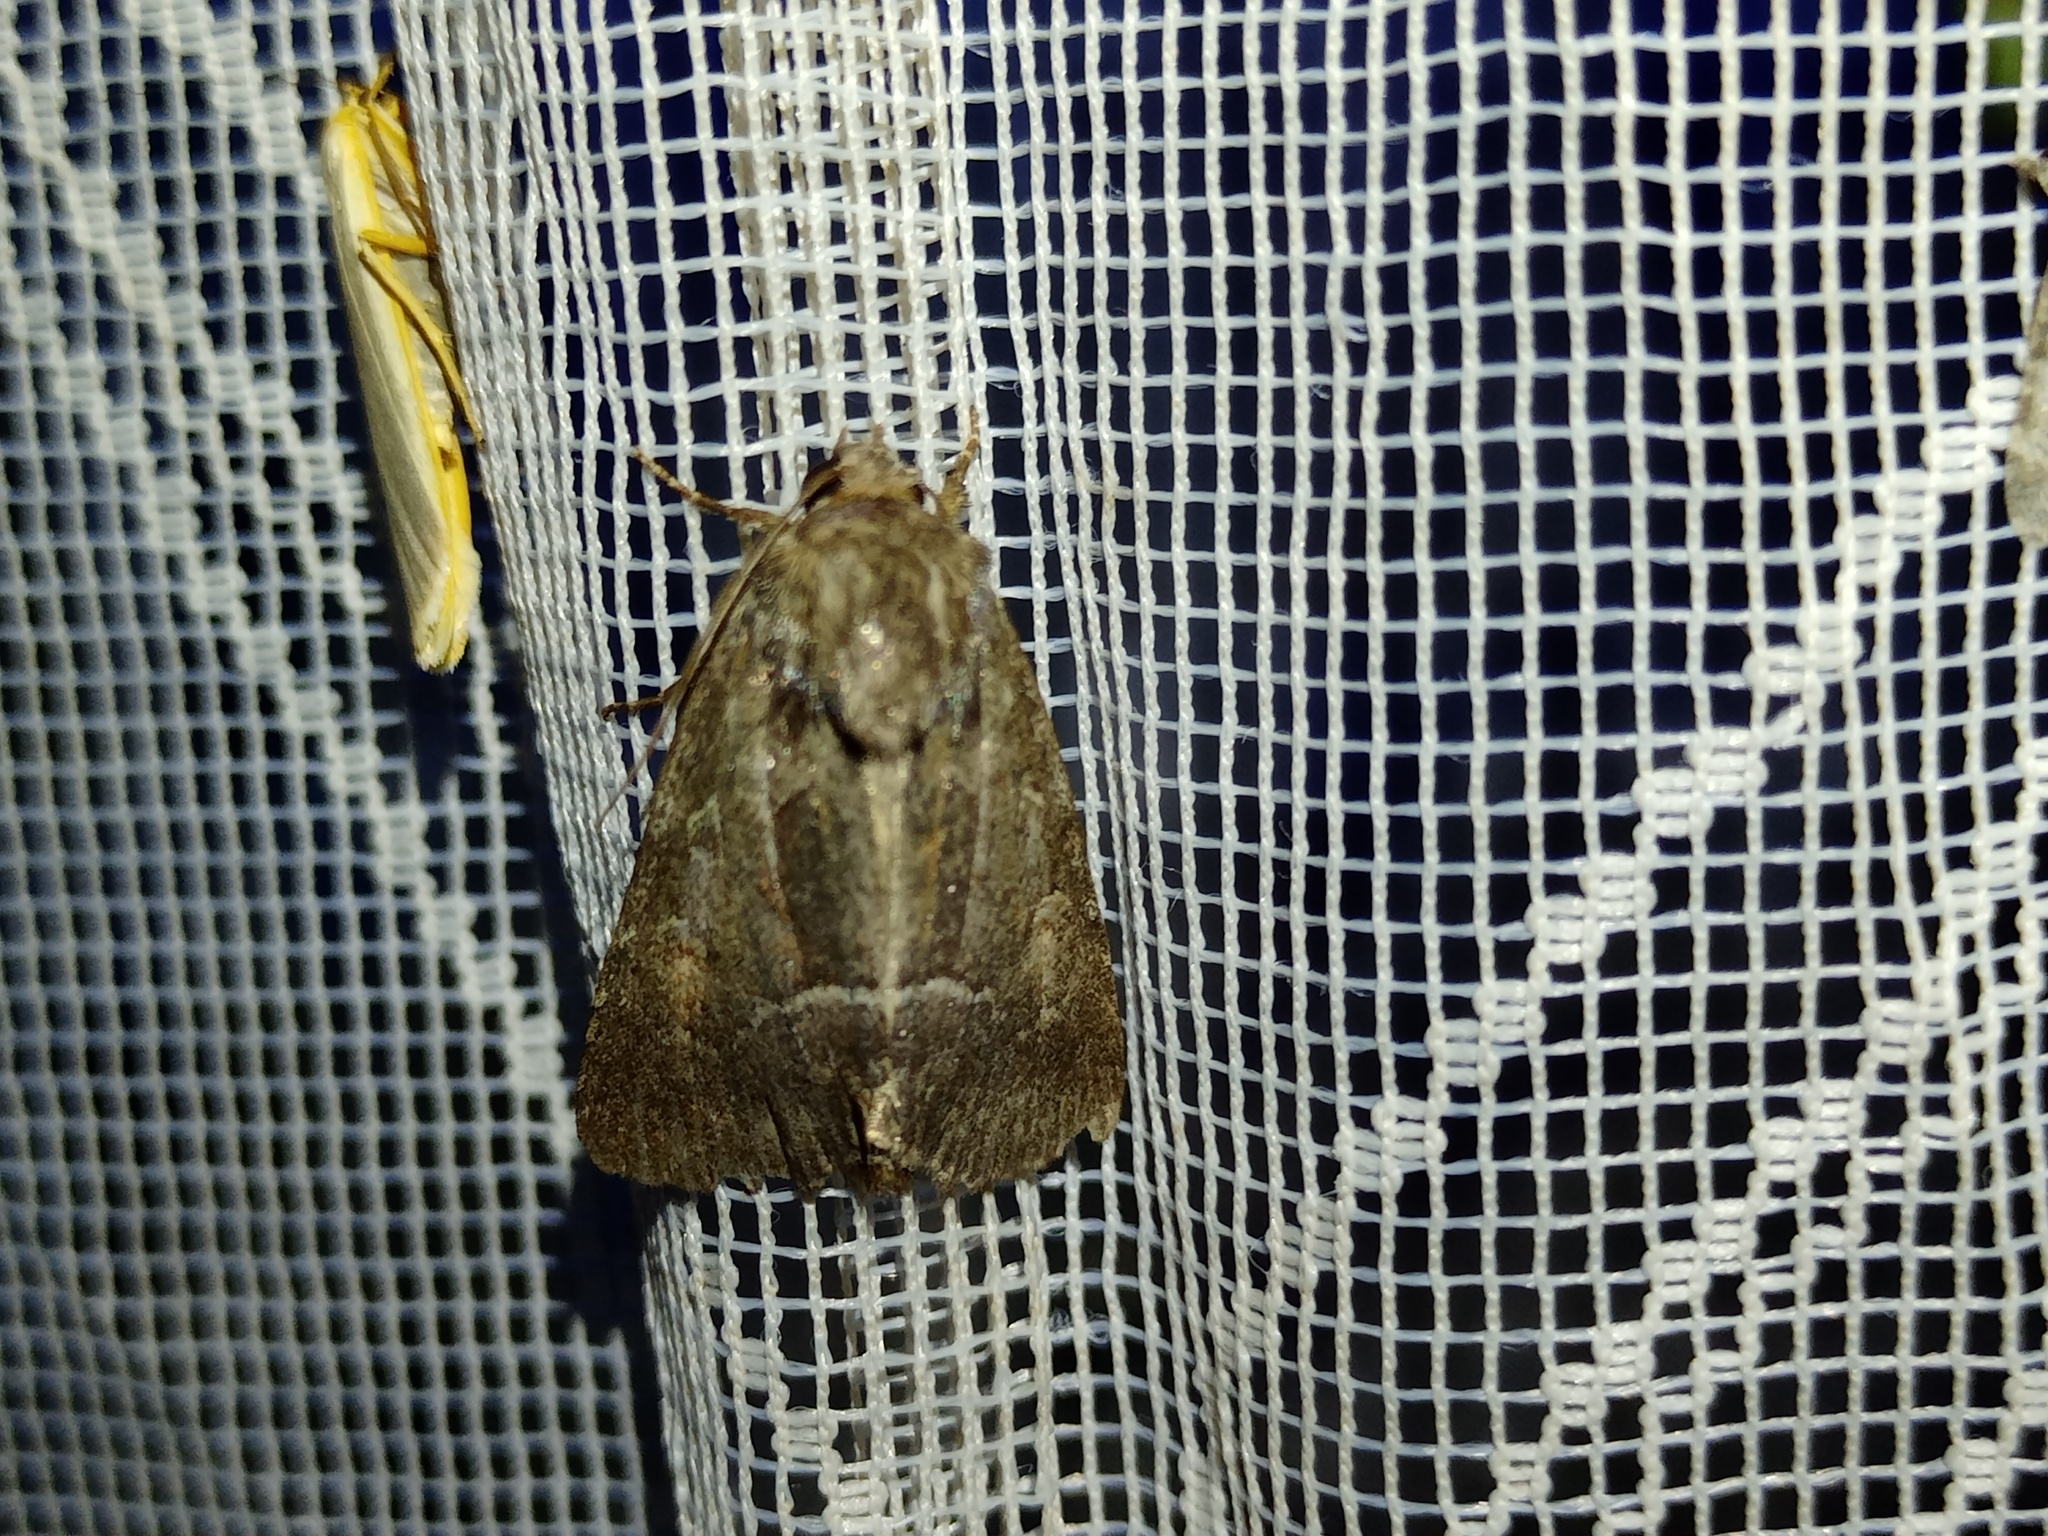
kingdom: Animalia
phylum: Arthropoda
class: Insecta
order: Lepidoptera
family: Noctuidae
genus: Thalpophila
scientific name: Thalpophila matura
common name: Straw underwing
